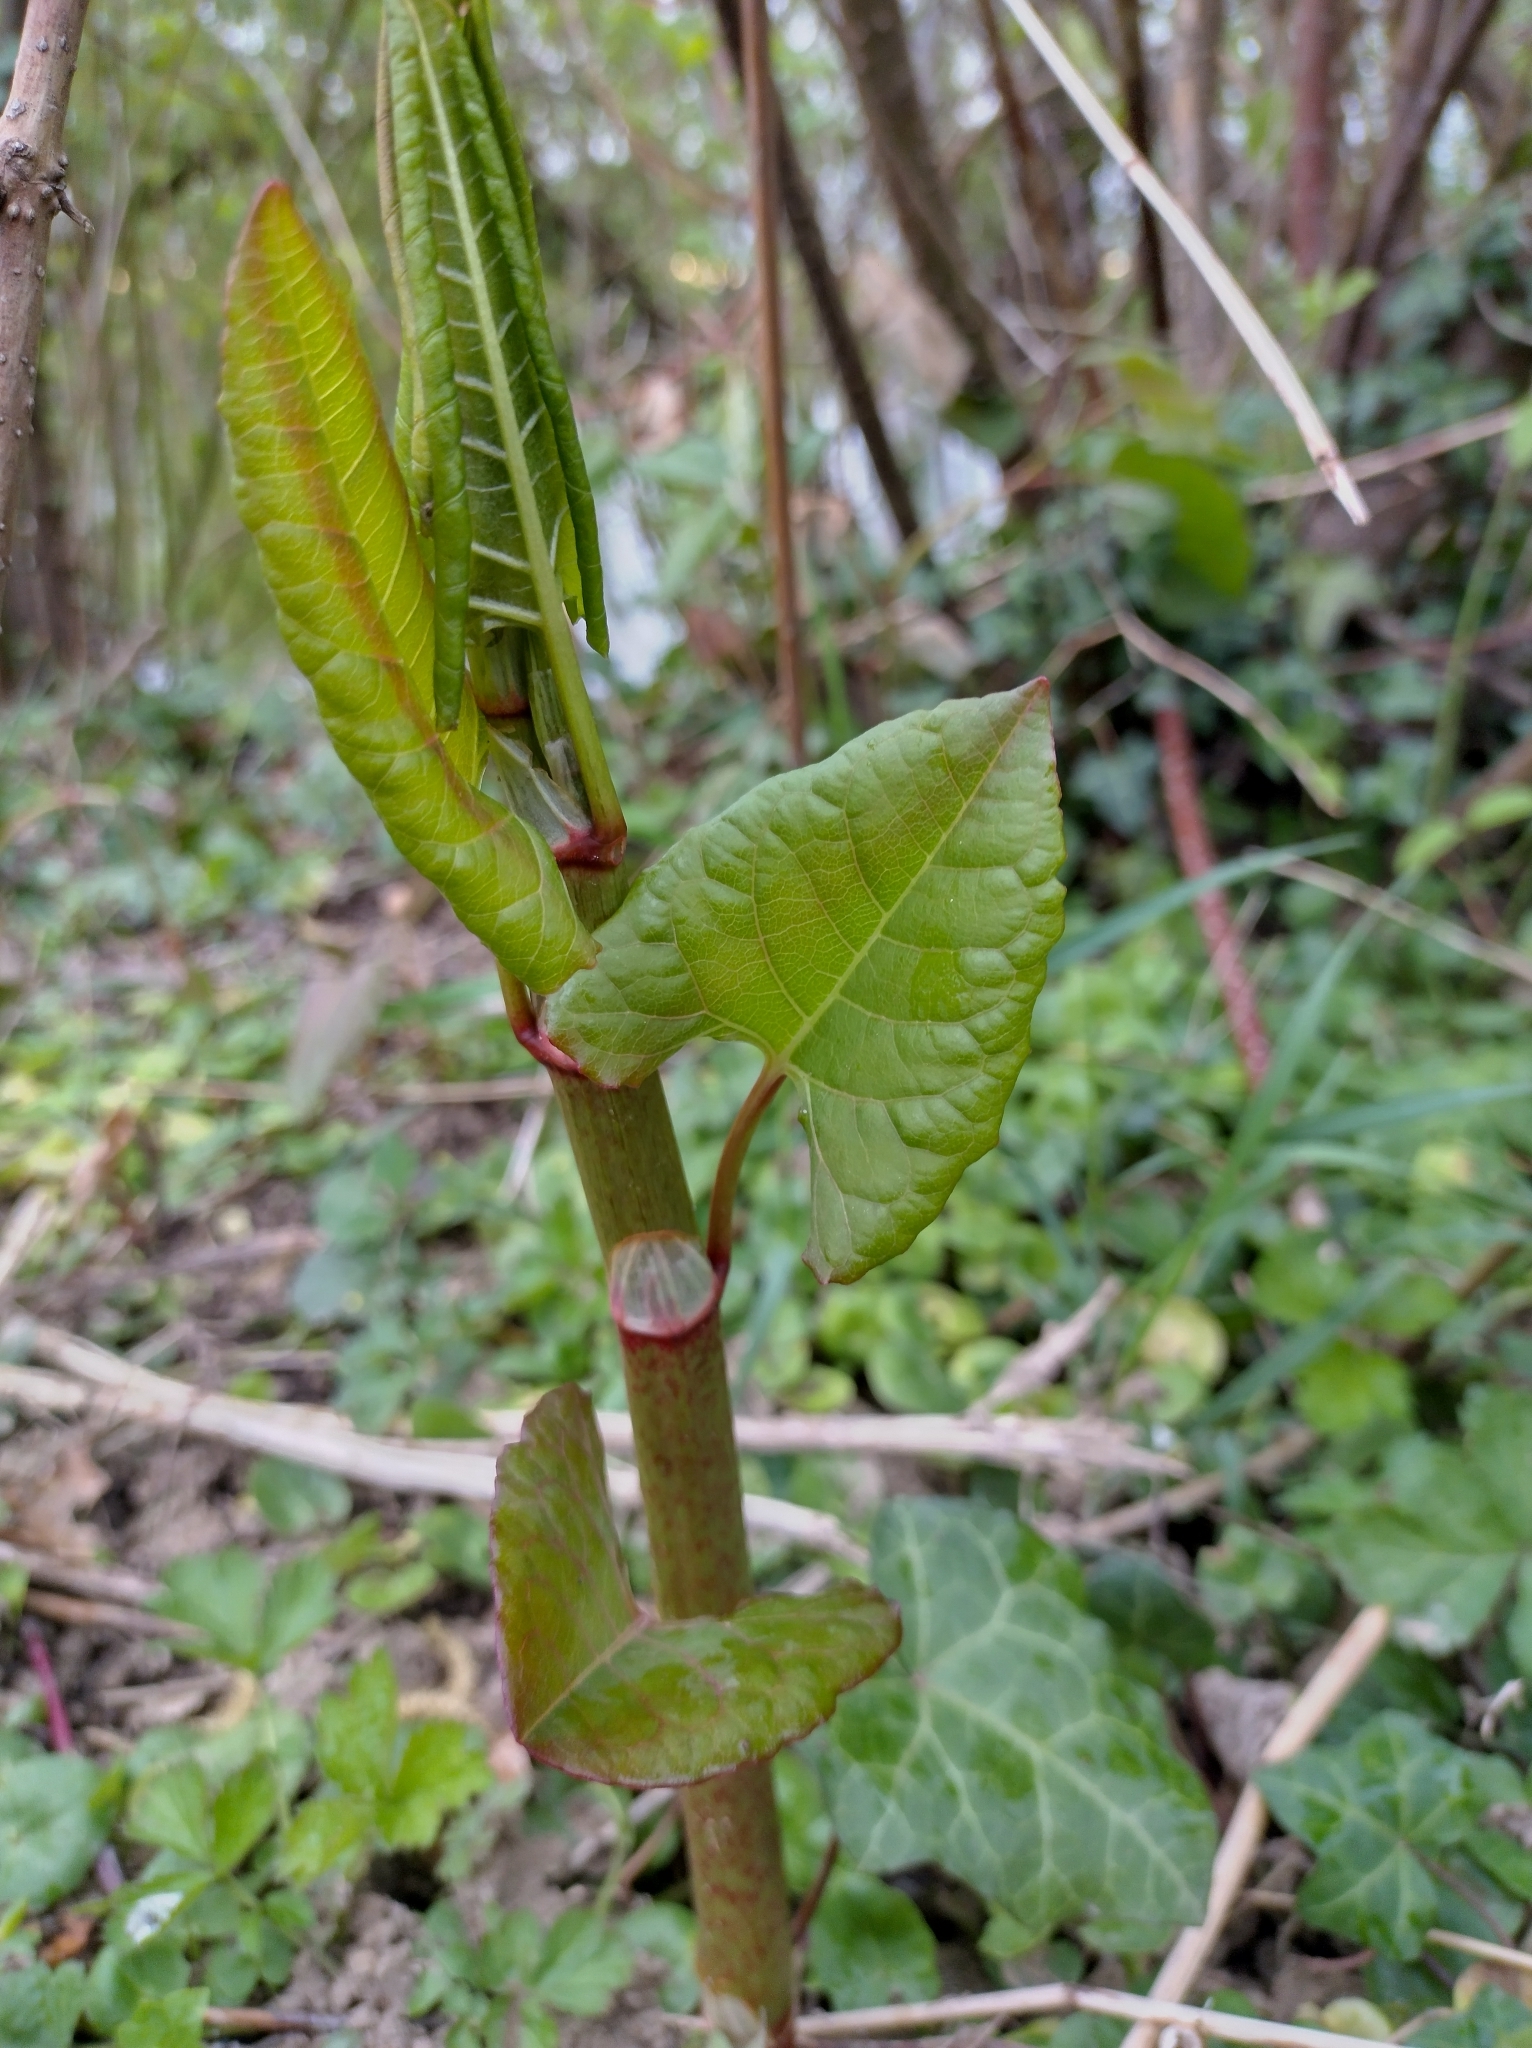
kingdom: Plantae
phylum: Tracheophyta
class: Magnoliopsida
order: Caryophyllales
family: Polygonaceae
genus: Reynoutria
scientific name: Reynoutria bohemica
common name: Bohemian knotweed
